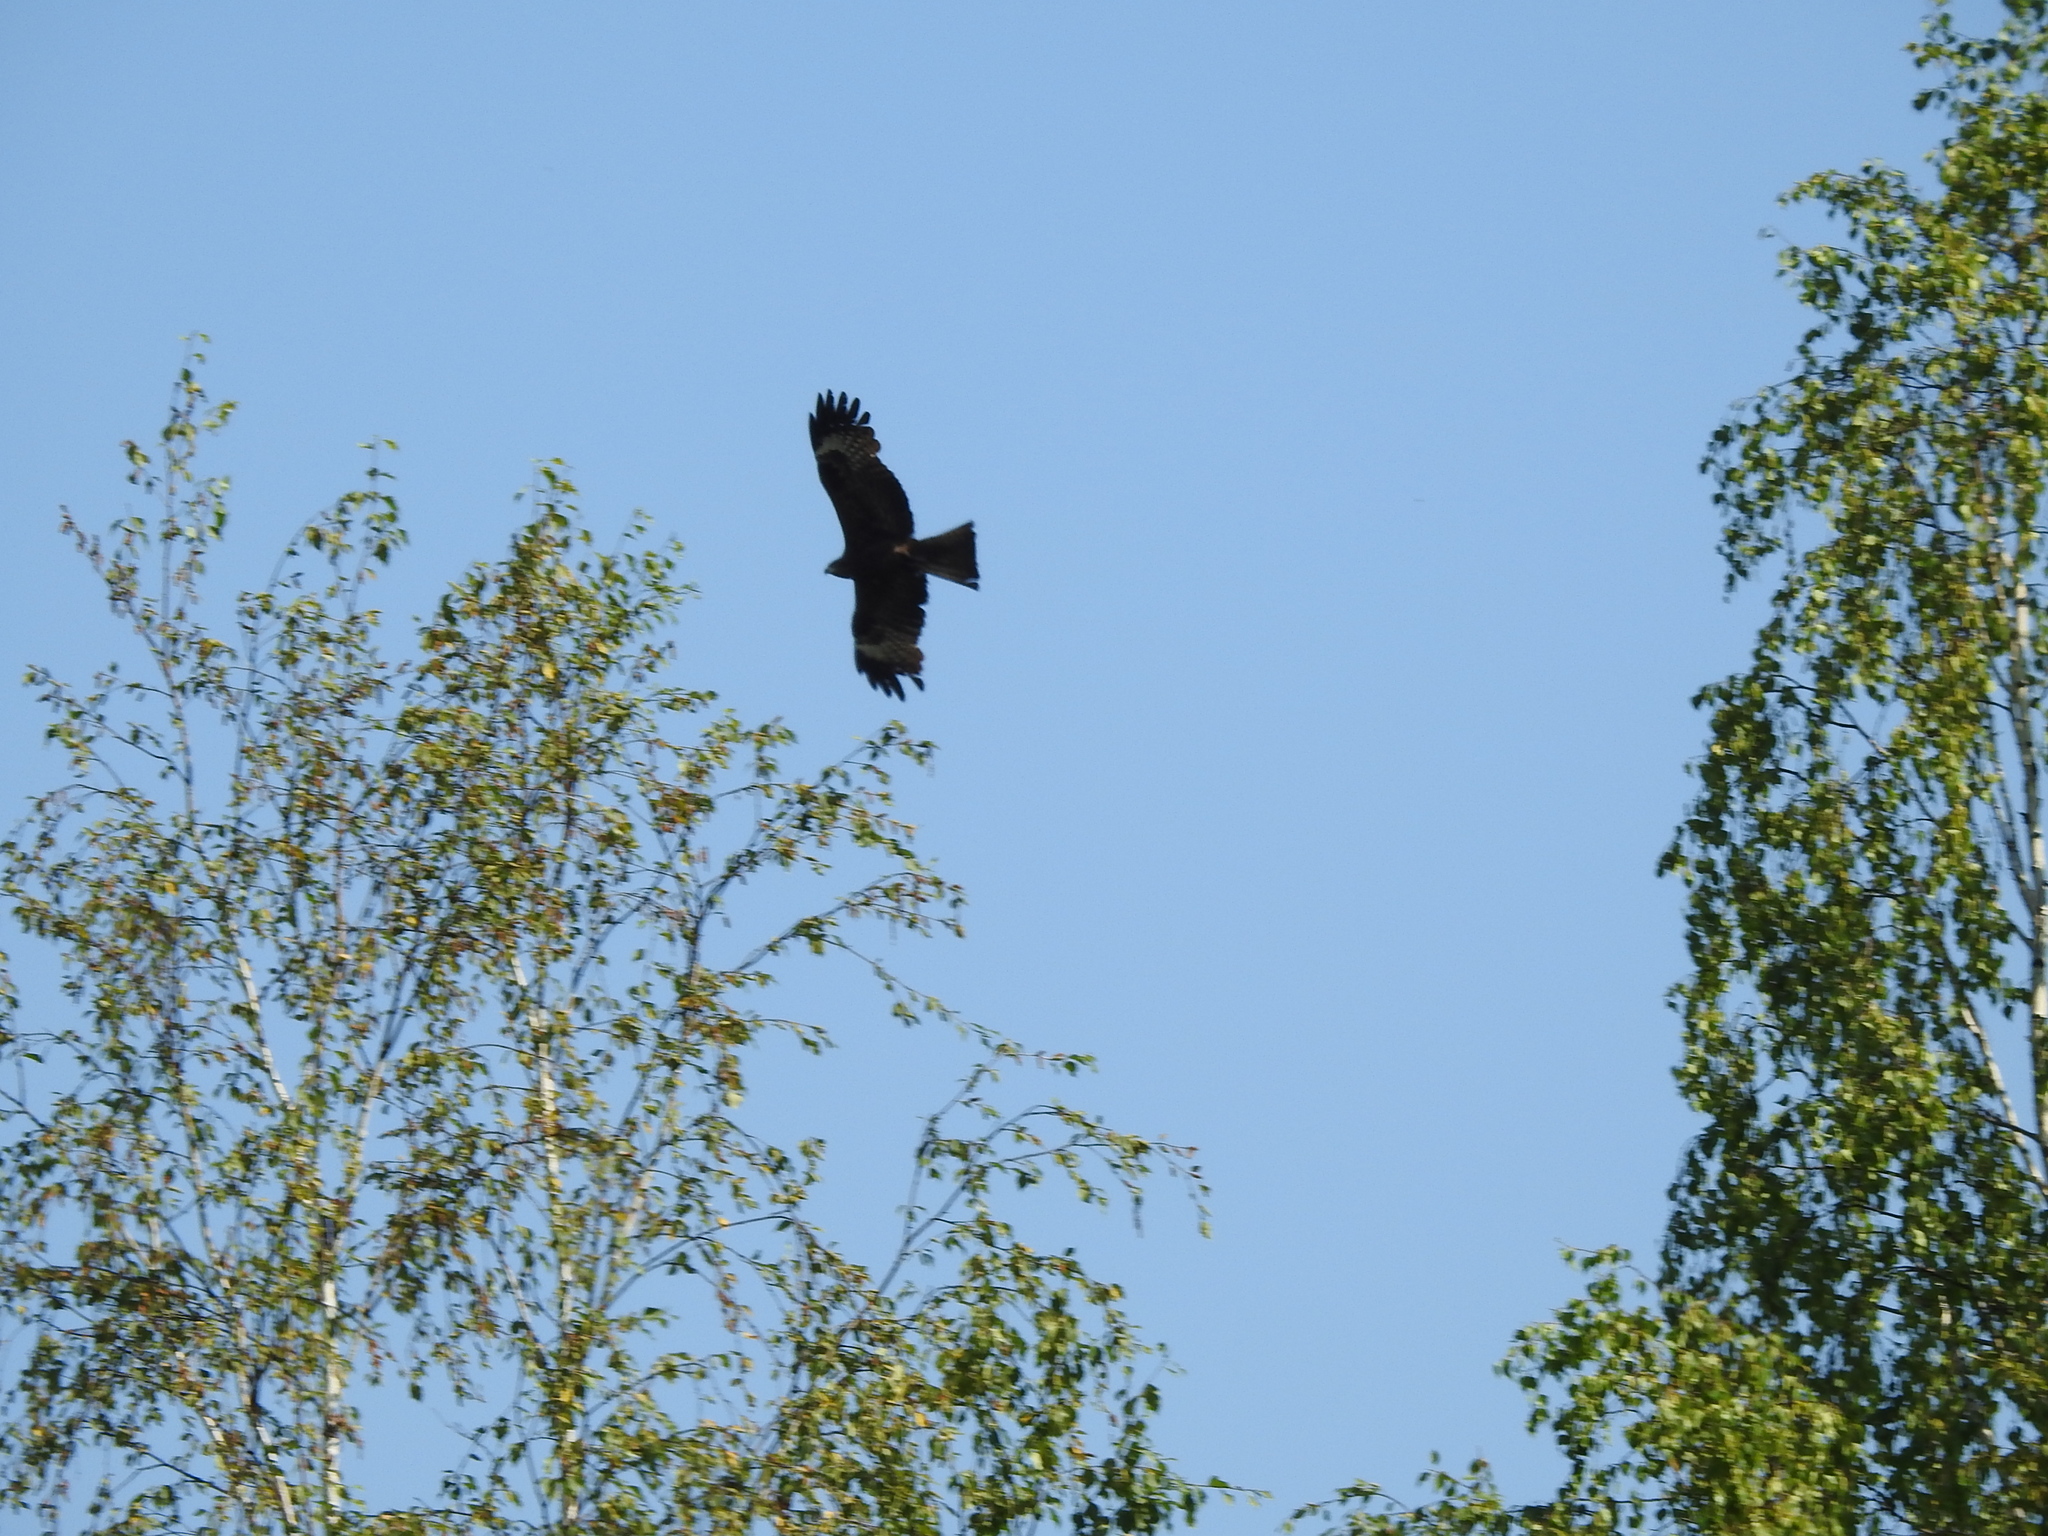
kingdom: Animalia
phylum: Chordata
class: Aves
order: Accipitriformes
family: Accipitridae
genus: Milvus
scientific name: Milvus migrans
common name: Black kite
